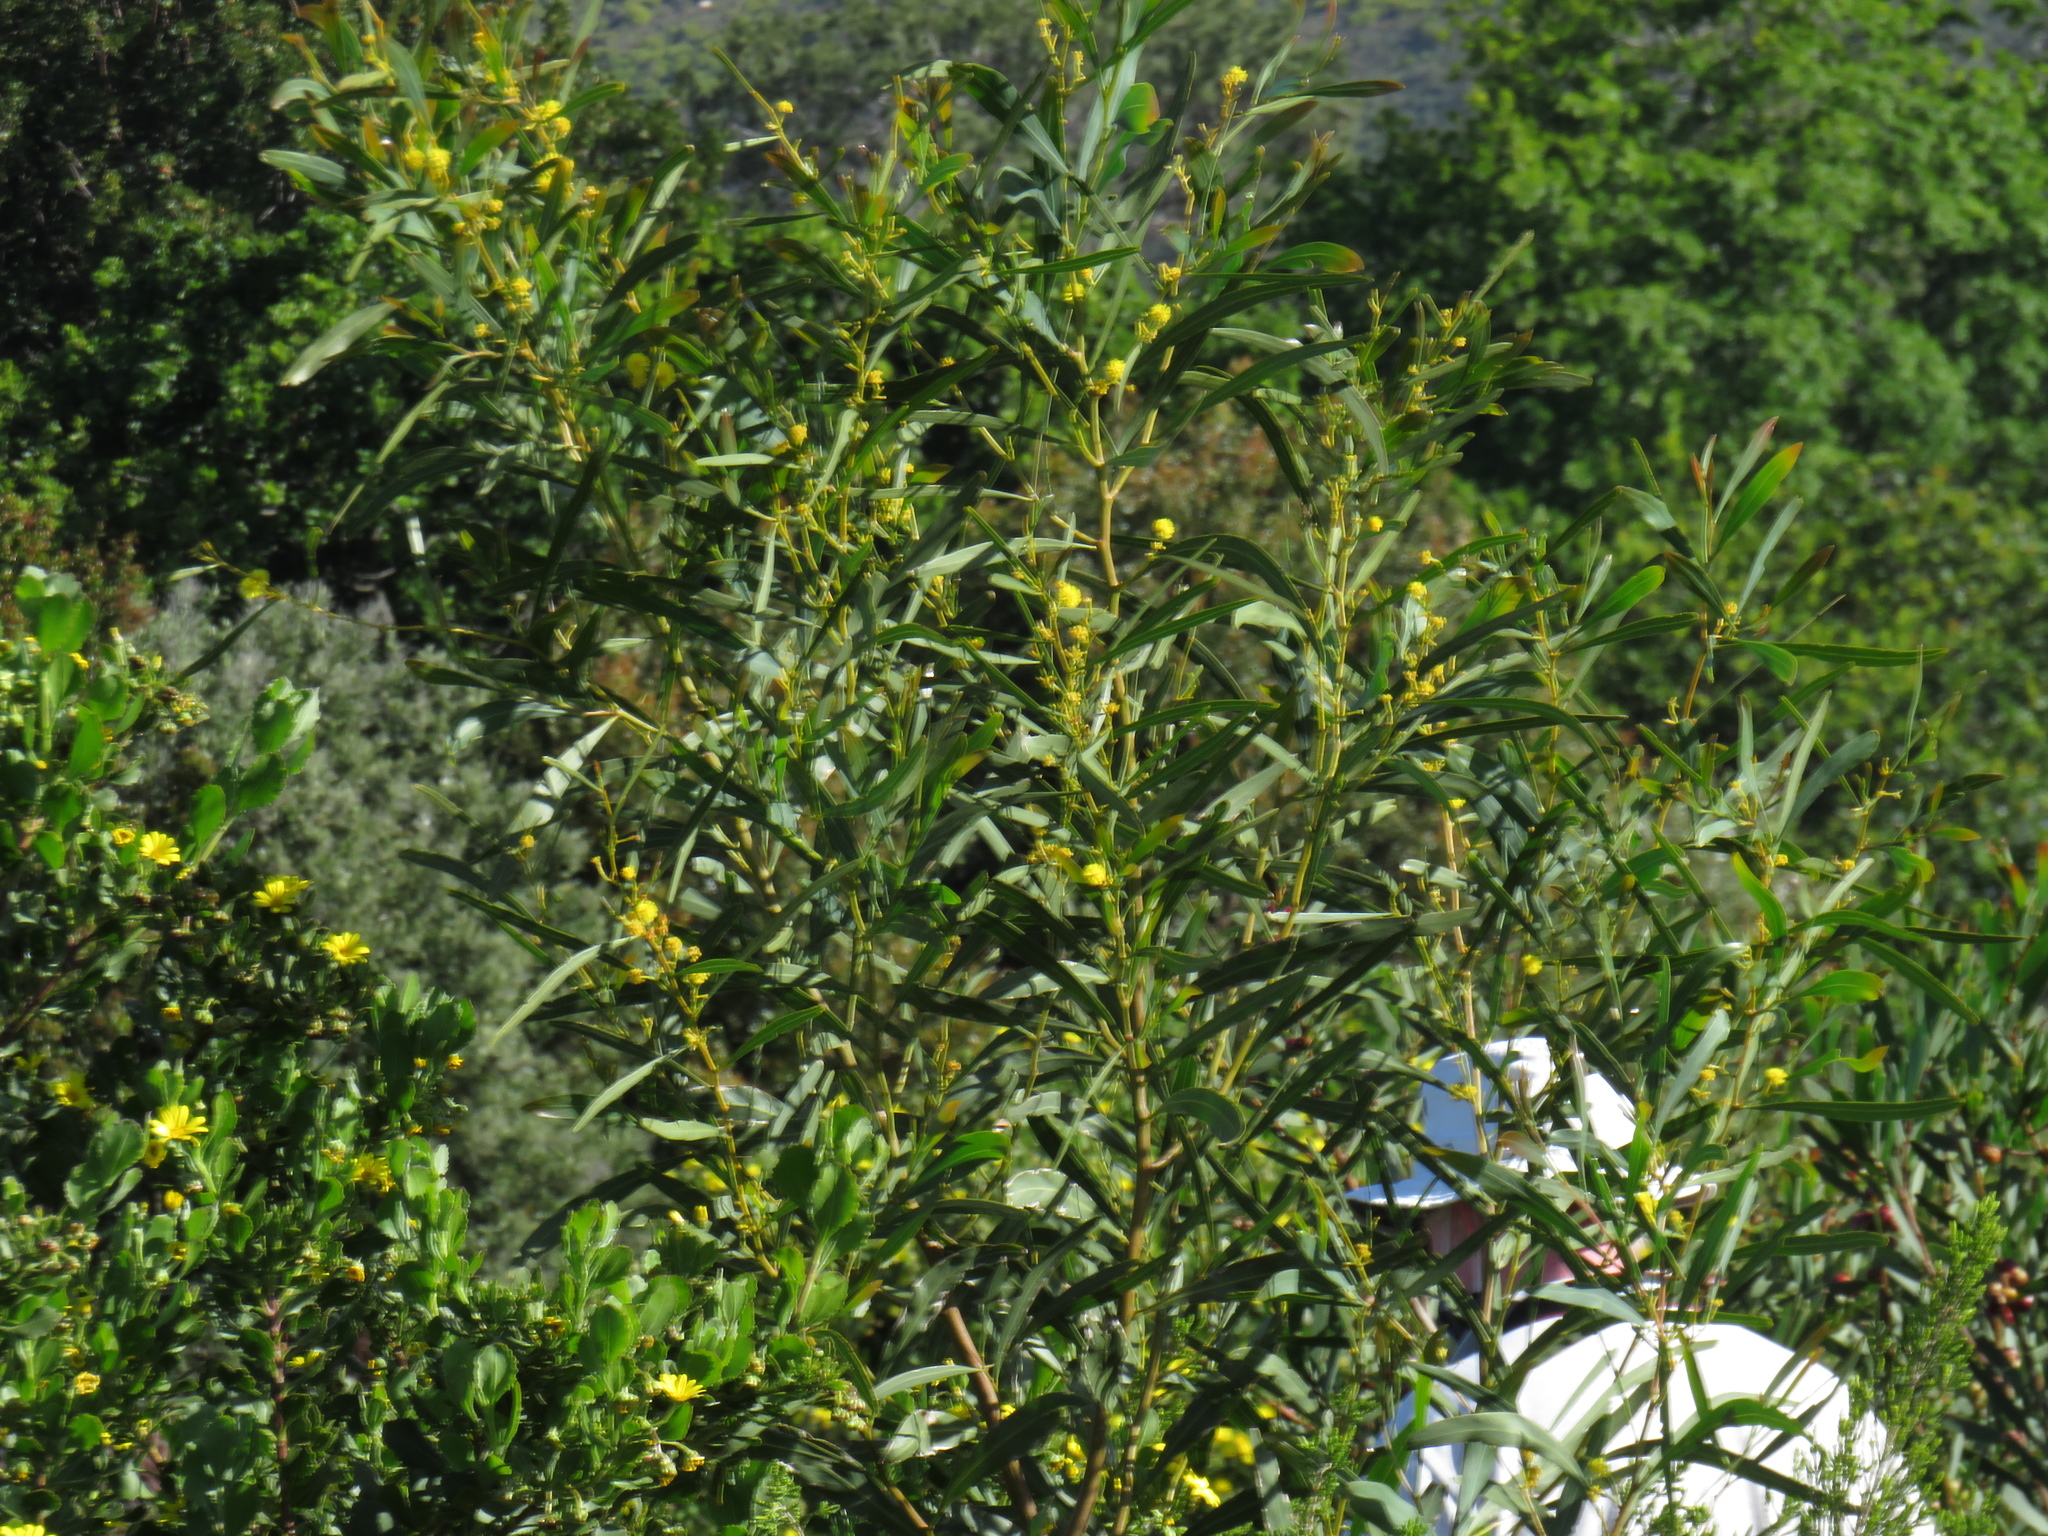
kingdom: Plantae
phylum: Tracheophyta
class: Magnoliopsida
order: Fabales
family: Fabaceae
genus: Acacia
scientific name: Acacia saligna
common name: Orange wattle
